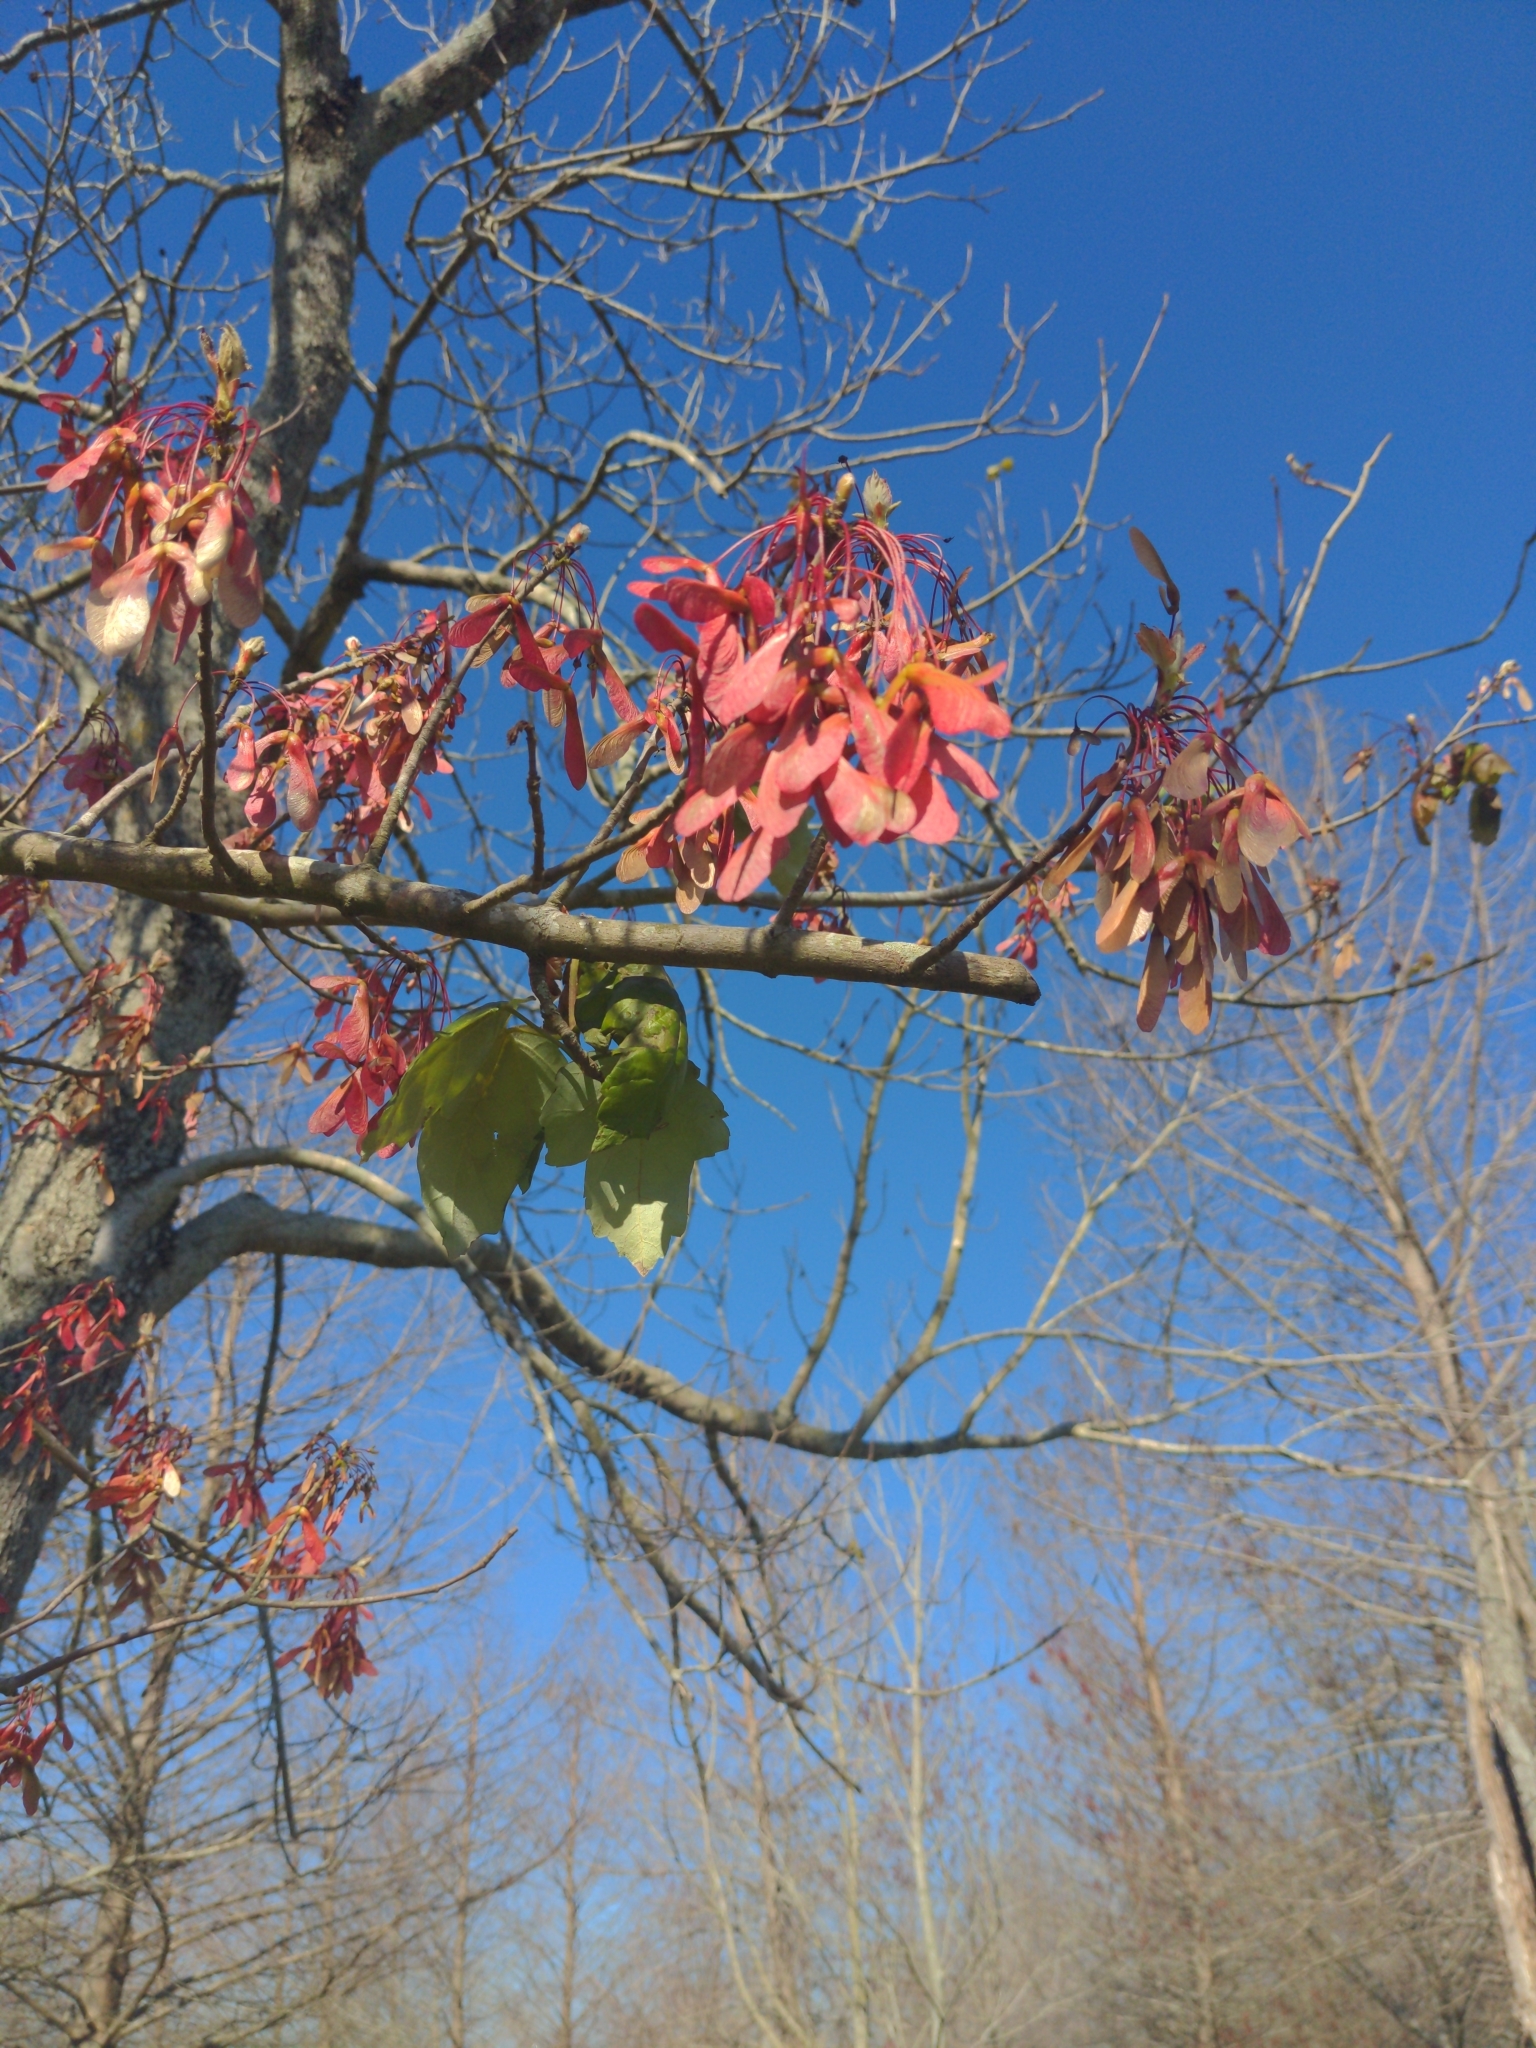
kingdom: Plantae
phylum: Tracheophyta
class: Magnoliopsida
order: Sapindales
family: Sapindaceae
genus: Acer
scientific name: Acer rubrum
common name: Red maple
